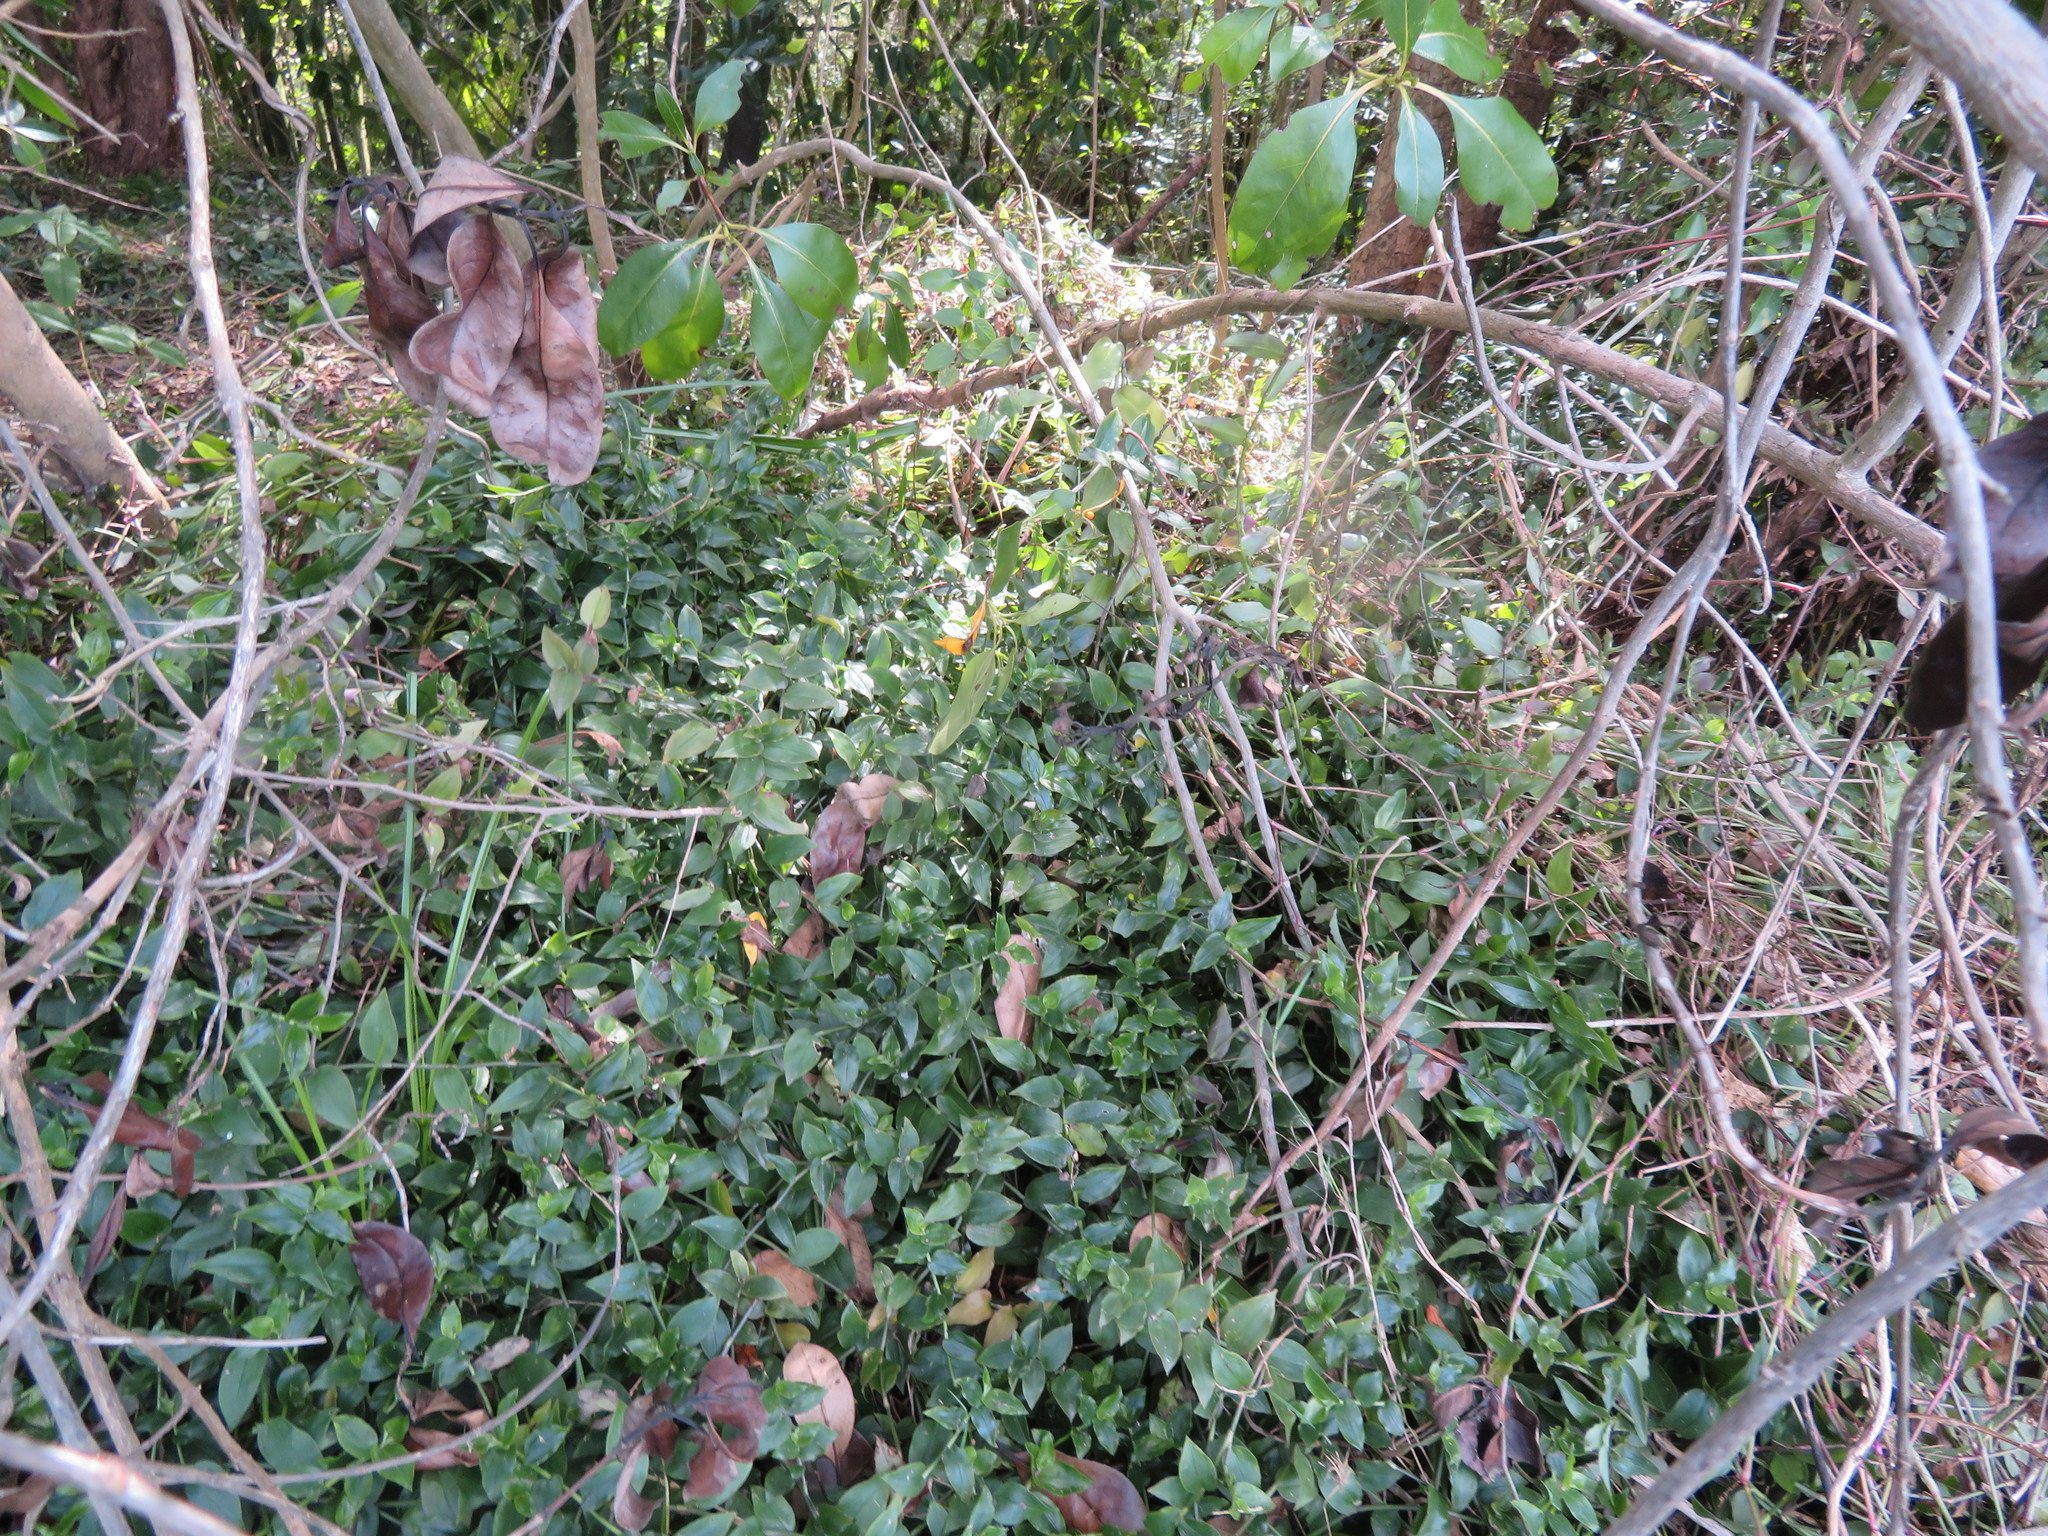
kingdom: Plantae
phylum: Tracheophyta
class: Liliopsida
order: Commelinales
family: Commelinaceae
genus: Tradescantia
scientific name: Tradescantia fluminensis
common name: Wandering-jew
